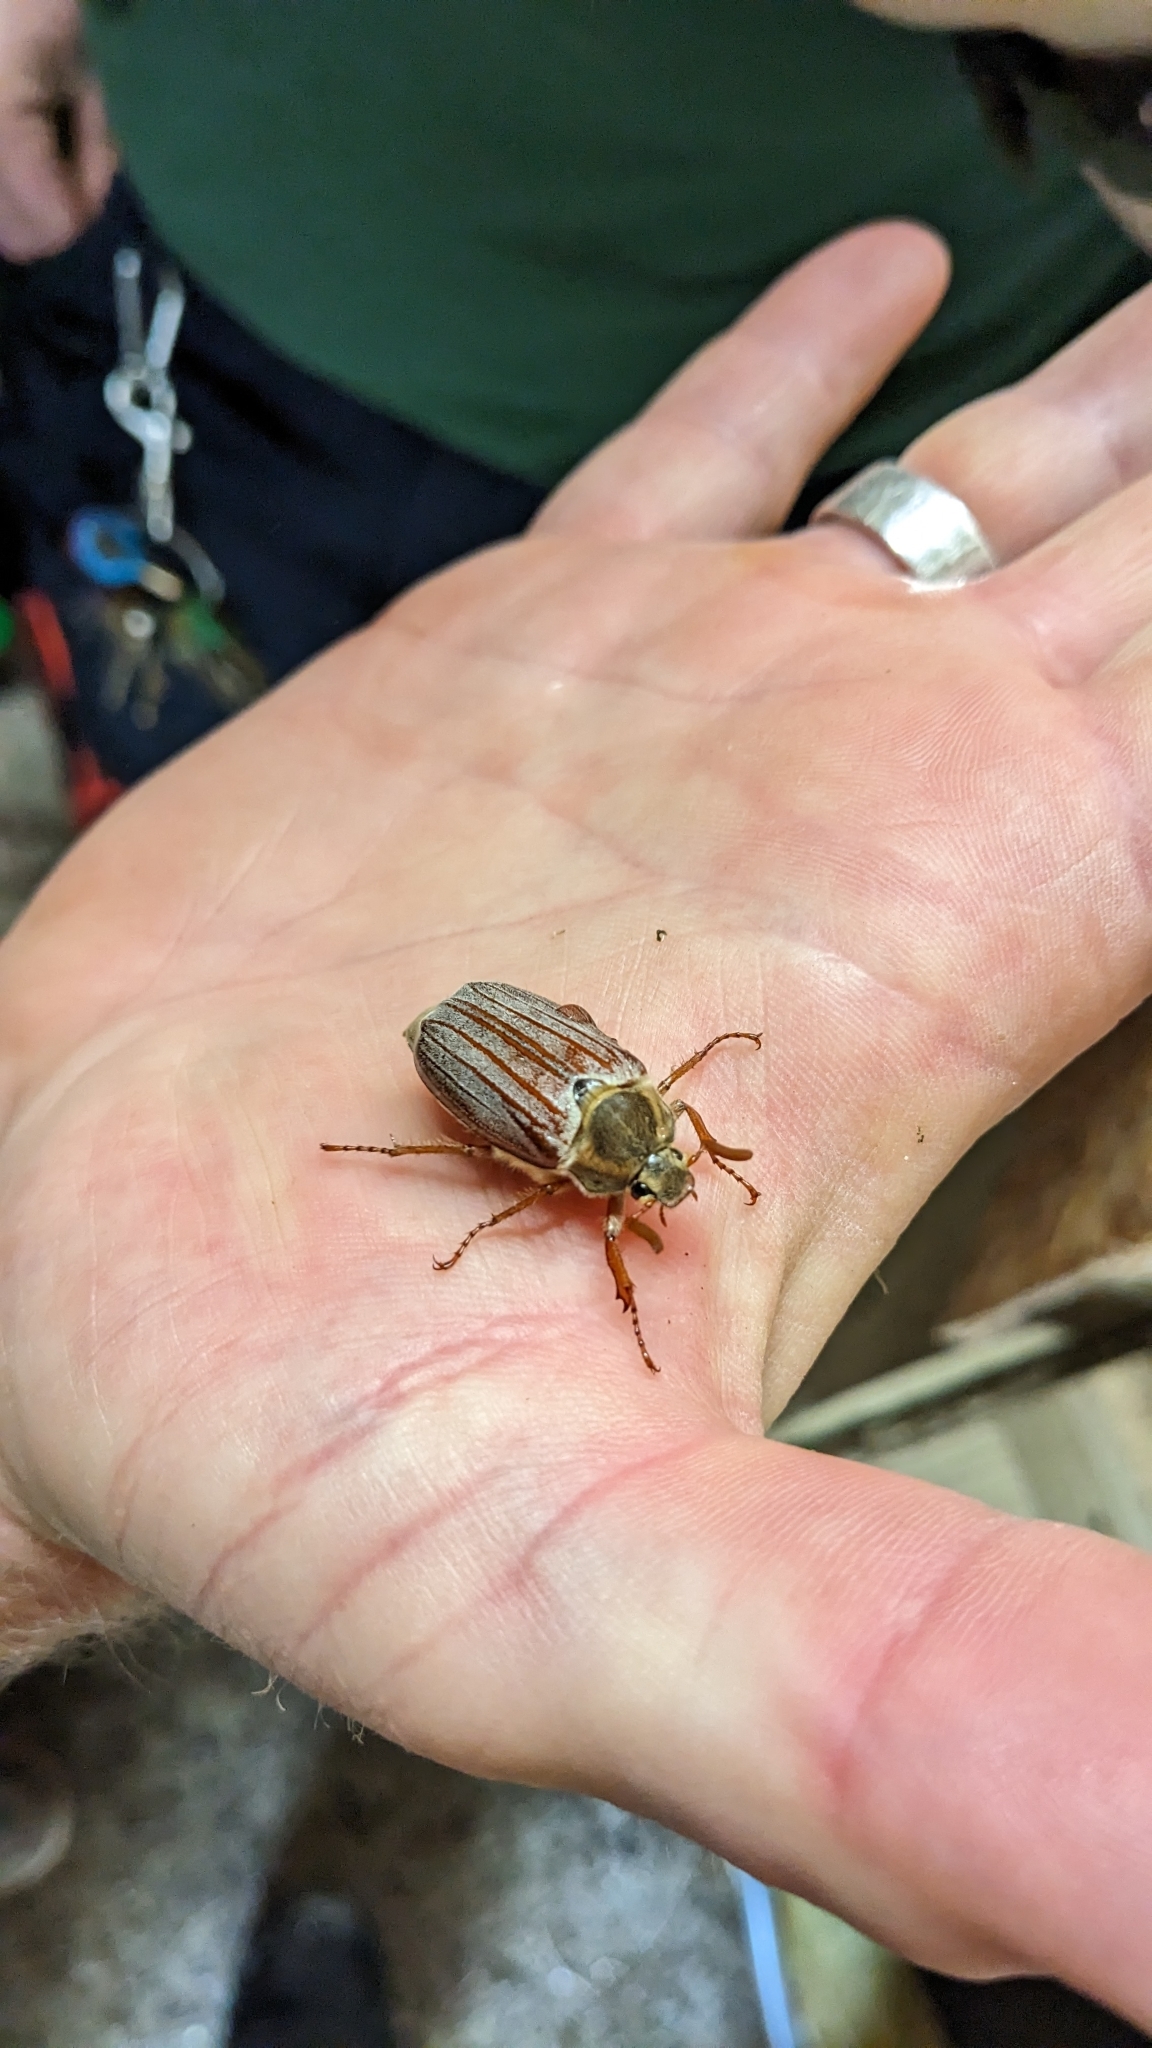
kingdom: Animalia
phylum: Arthropoda
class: Insecta
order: Coleoptera
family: Scarabaeidae
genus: Melolontha
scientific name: Melolontha melolontha
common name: Cockchafer maybeetle
